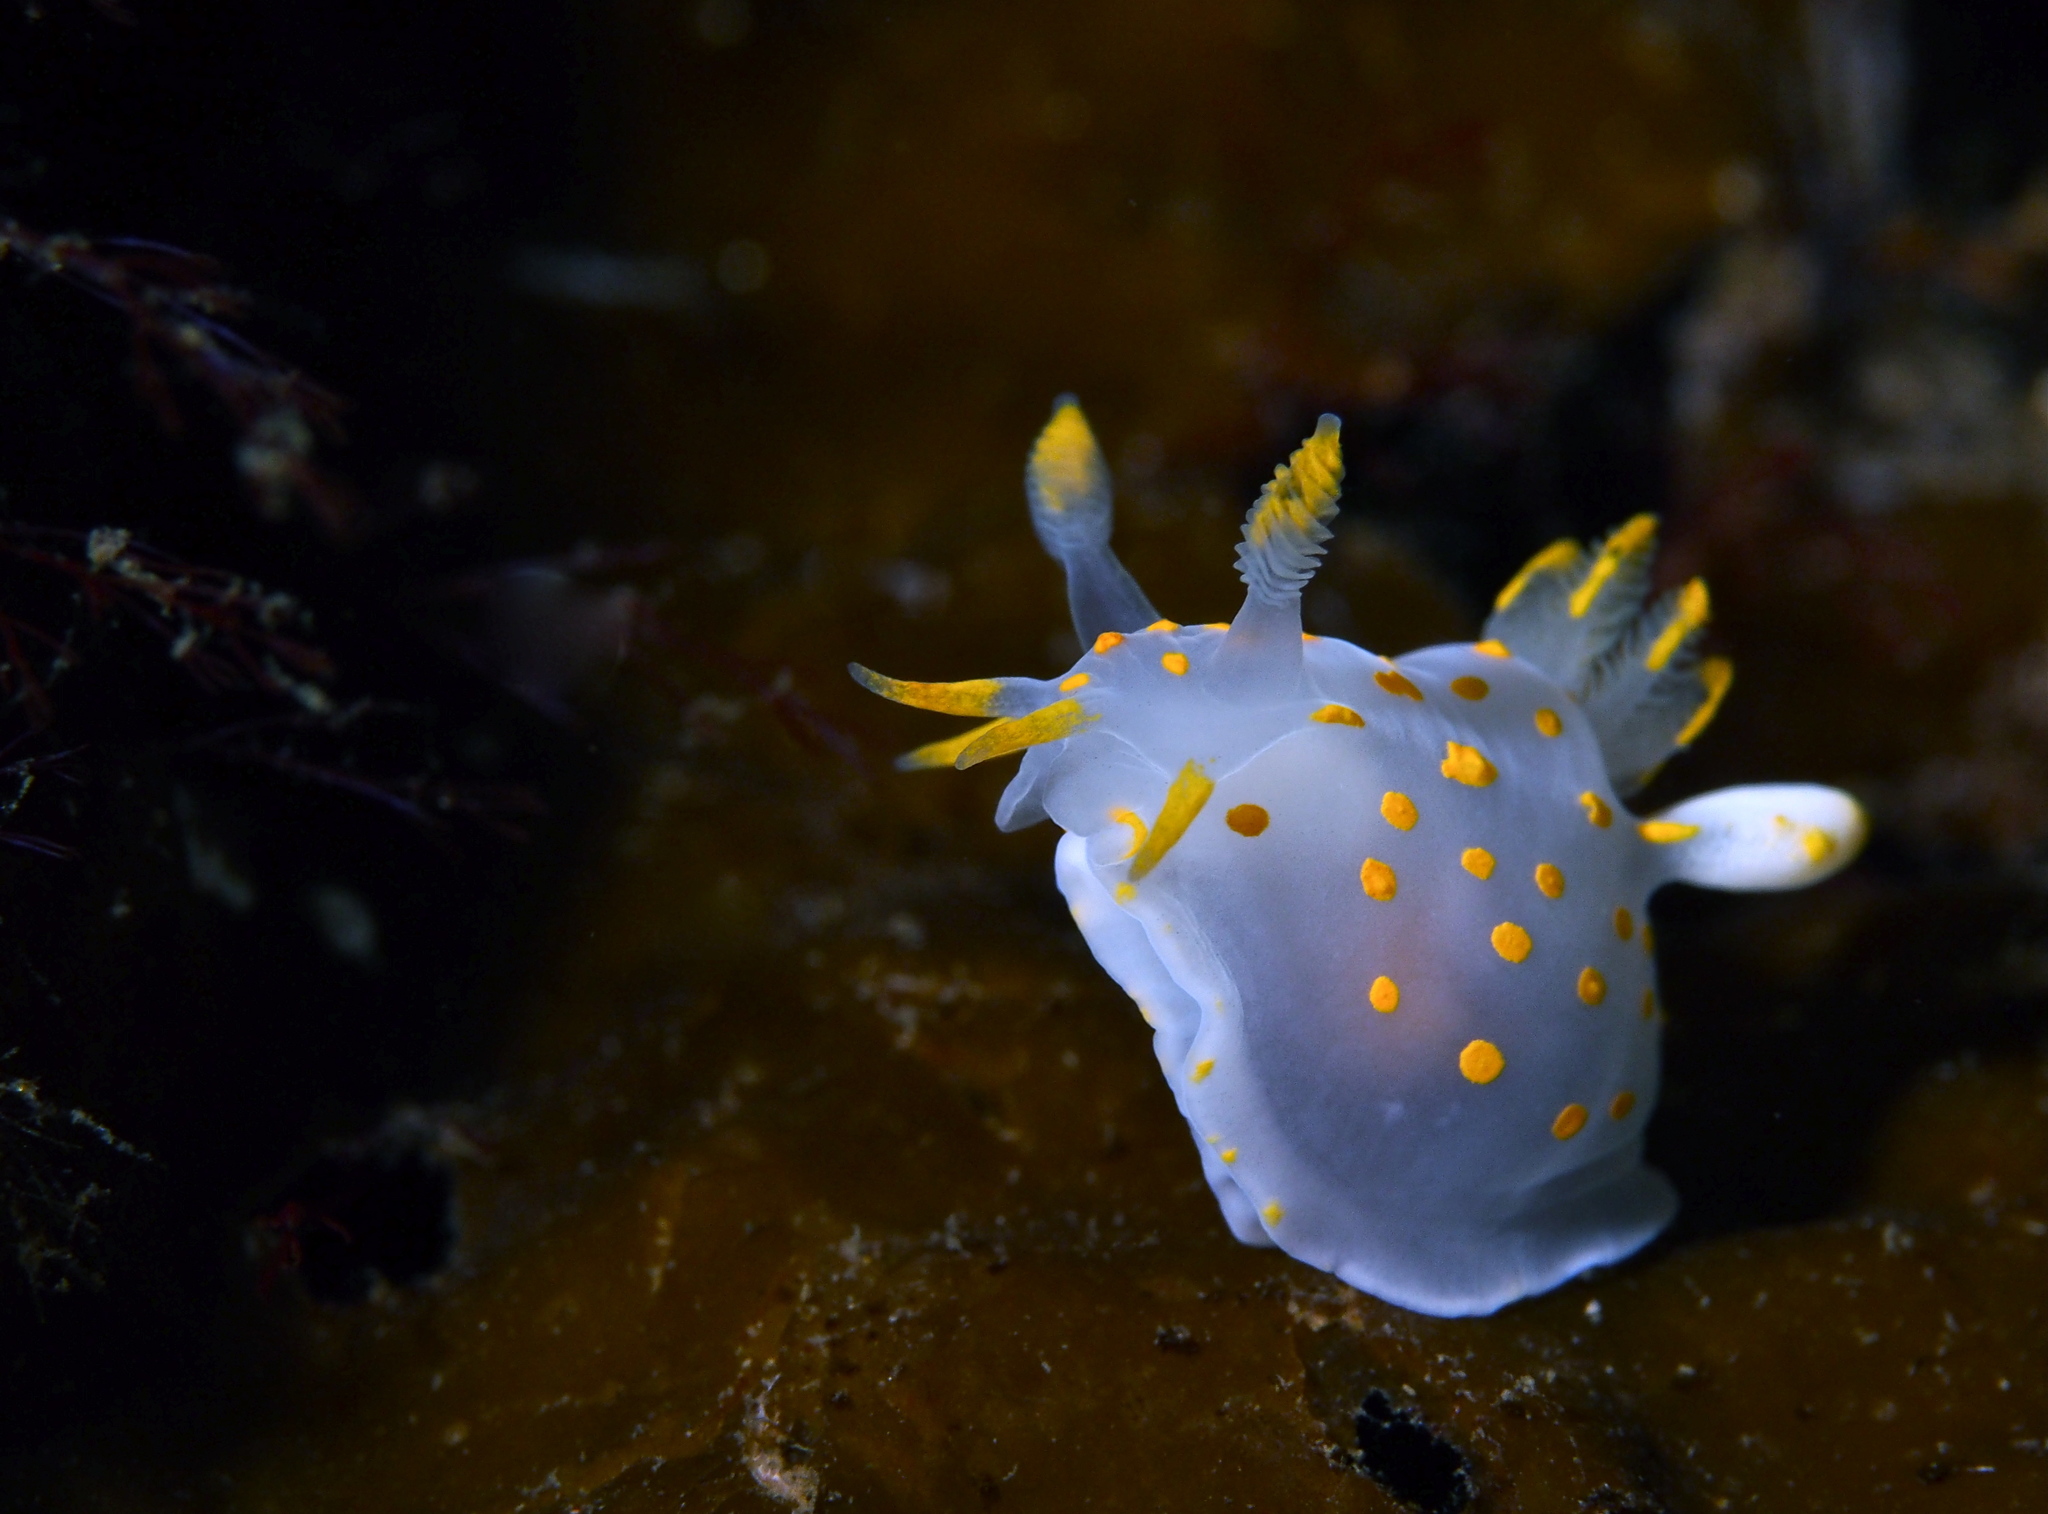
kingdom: Animalia
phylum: Mollusca
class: Gastropoda
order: Nudibranchia
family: Polyceridae
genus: Polycera
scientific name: Polycera quadrilineata
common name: Four-striped polycera
